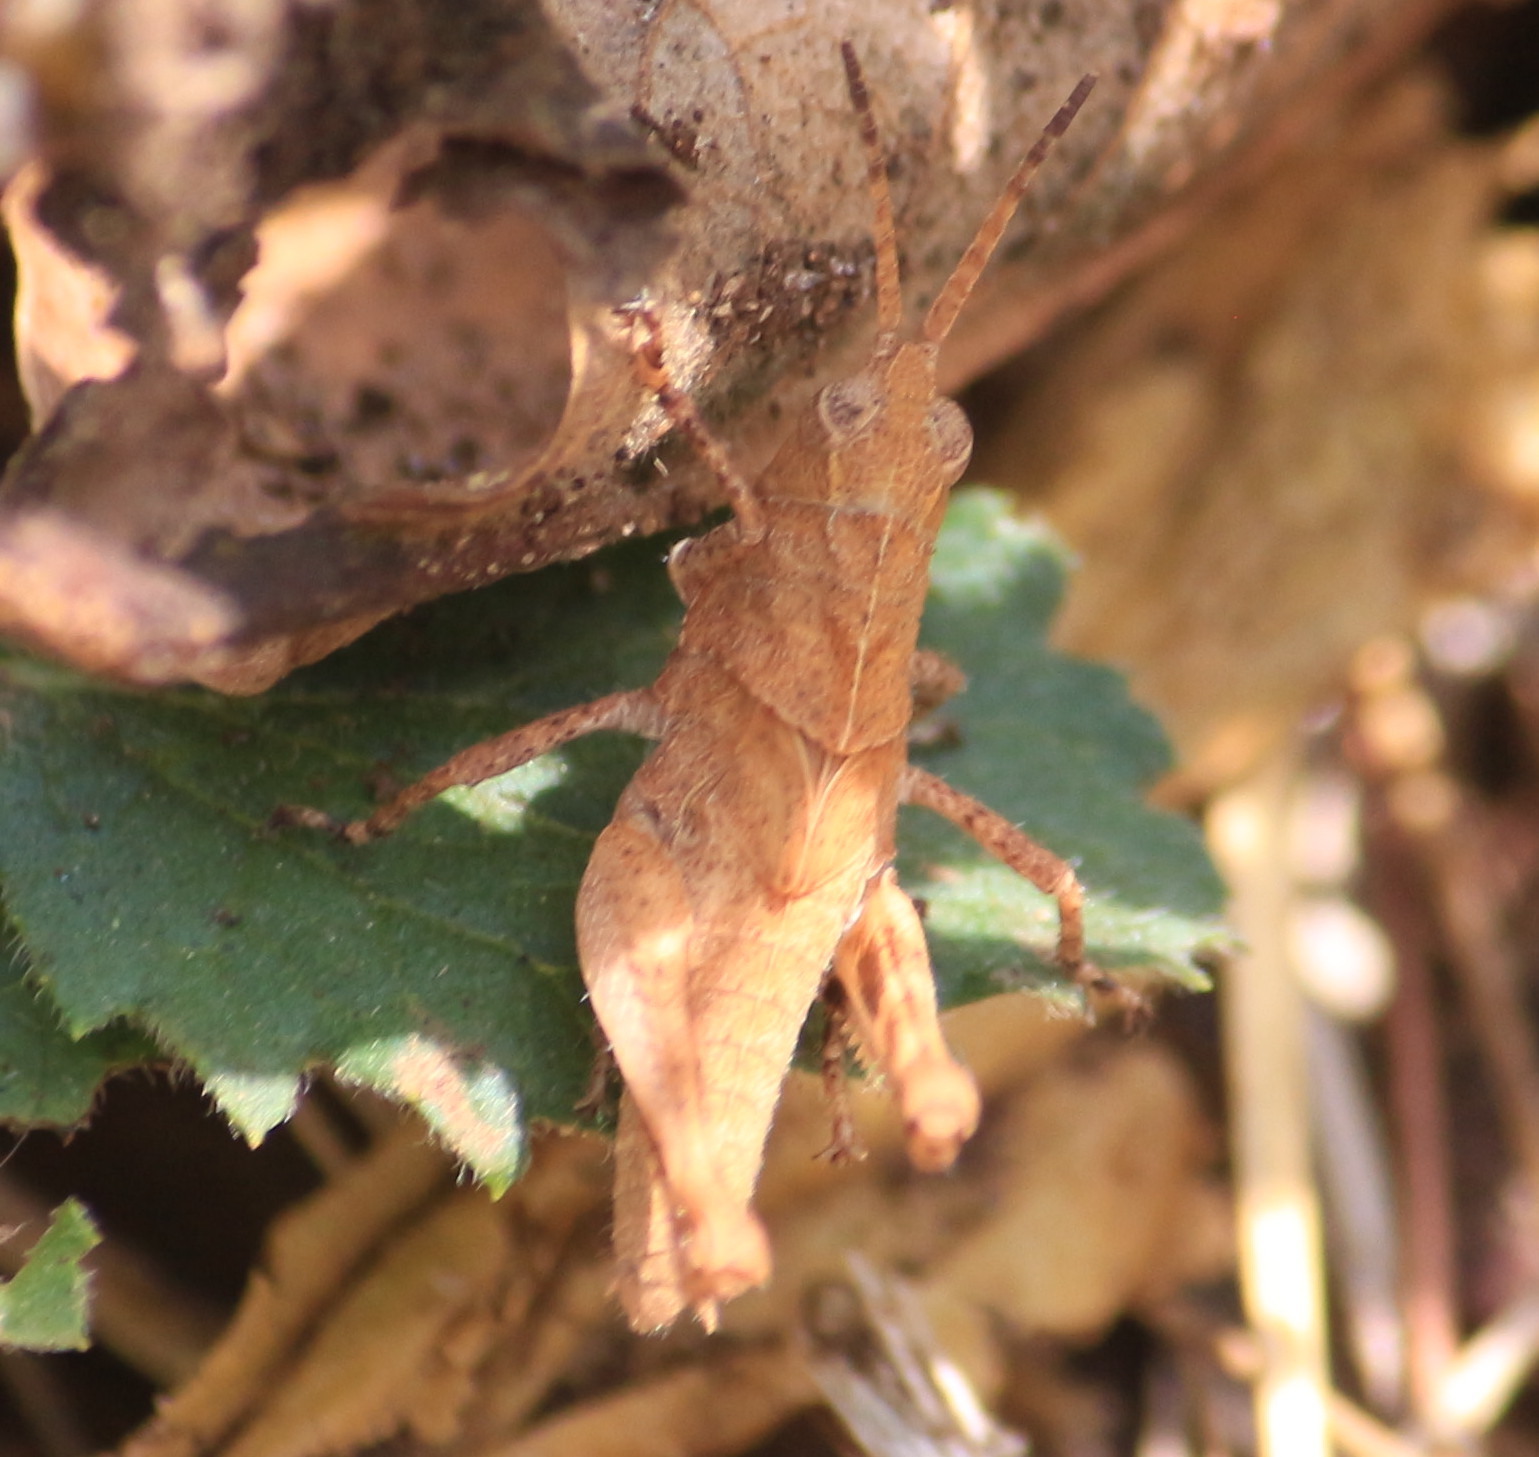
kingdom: Animalia
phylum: Arthropoda
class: Insecta
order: Orthoptera
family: Acrididae
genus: Machaerocera
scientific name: Machaerocera mexicana
